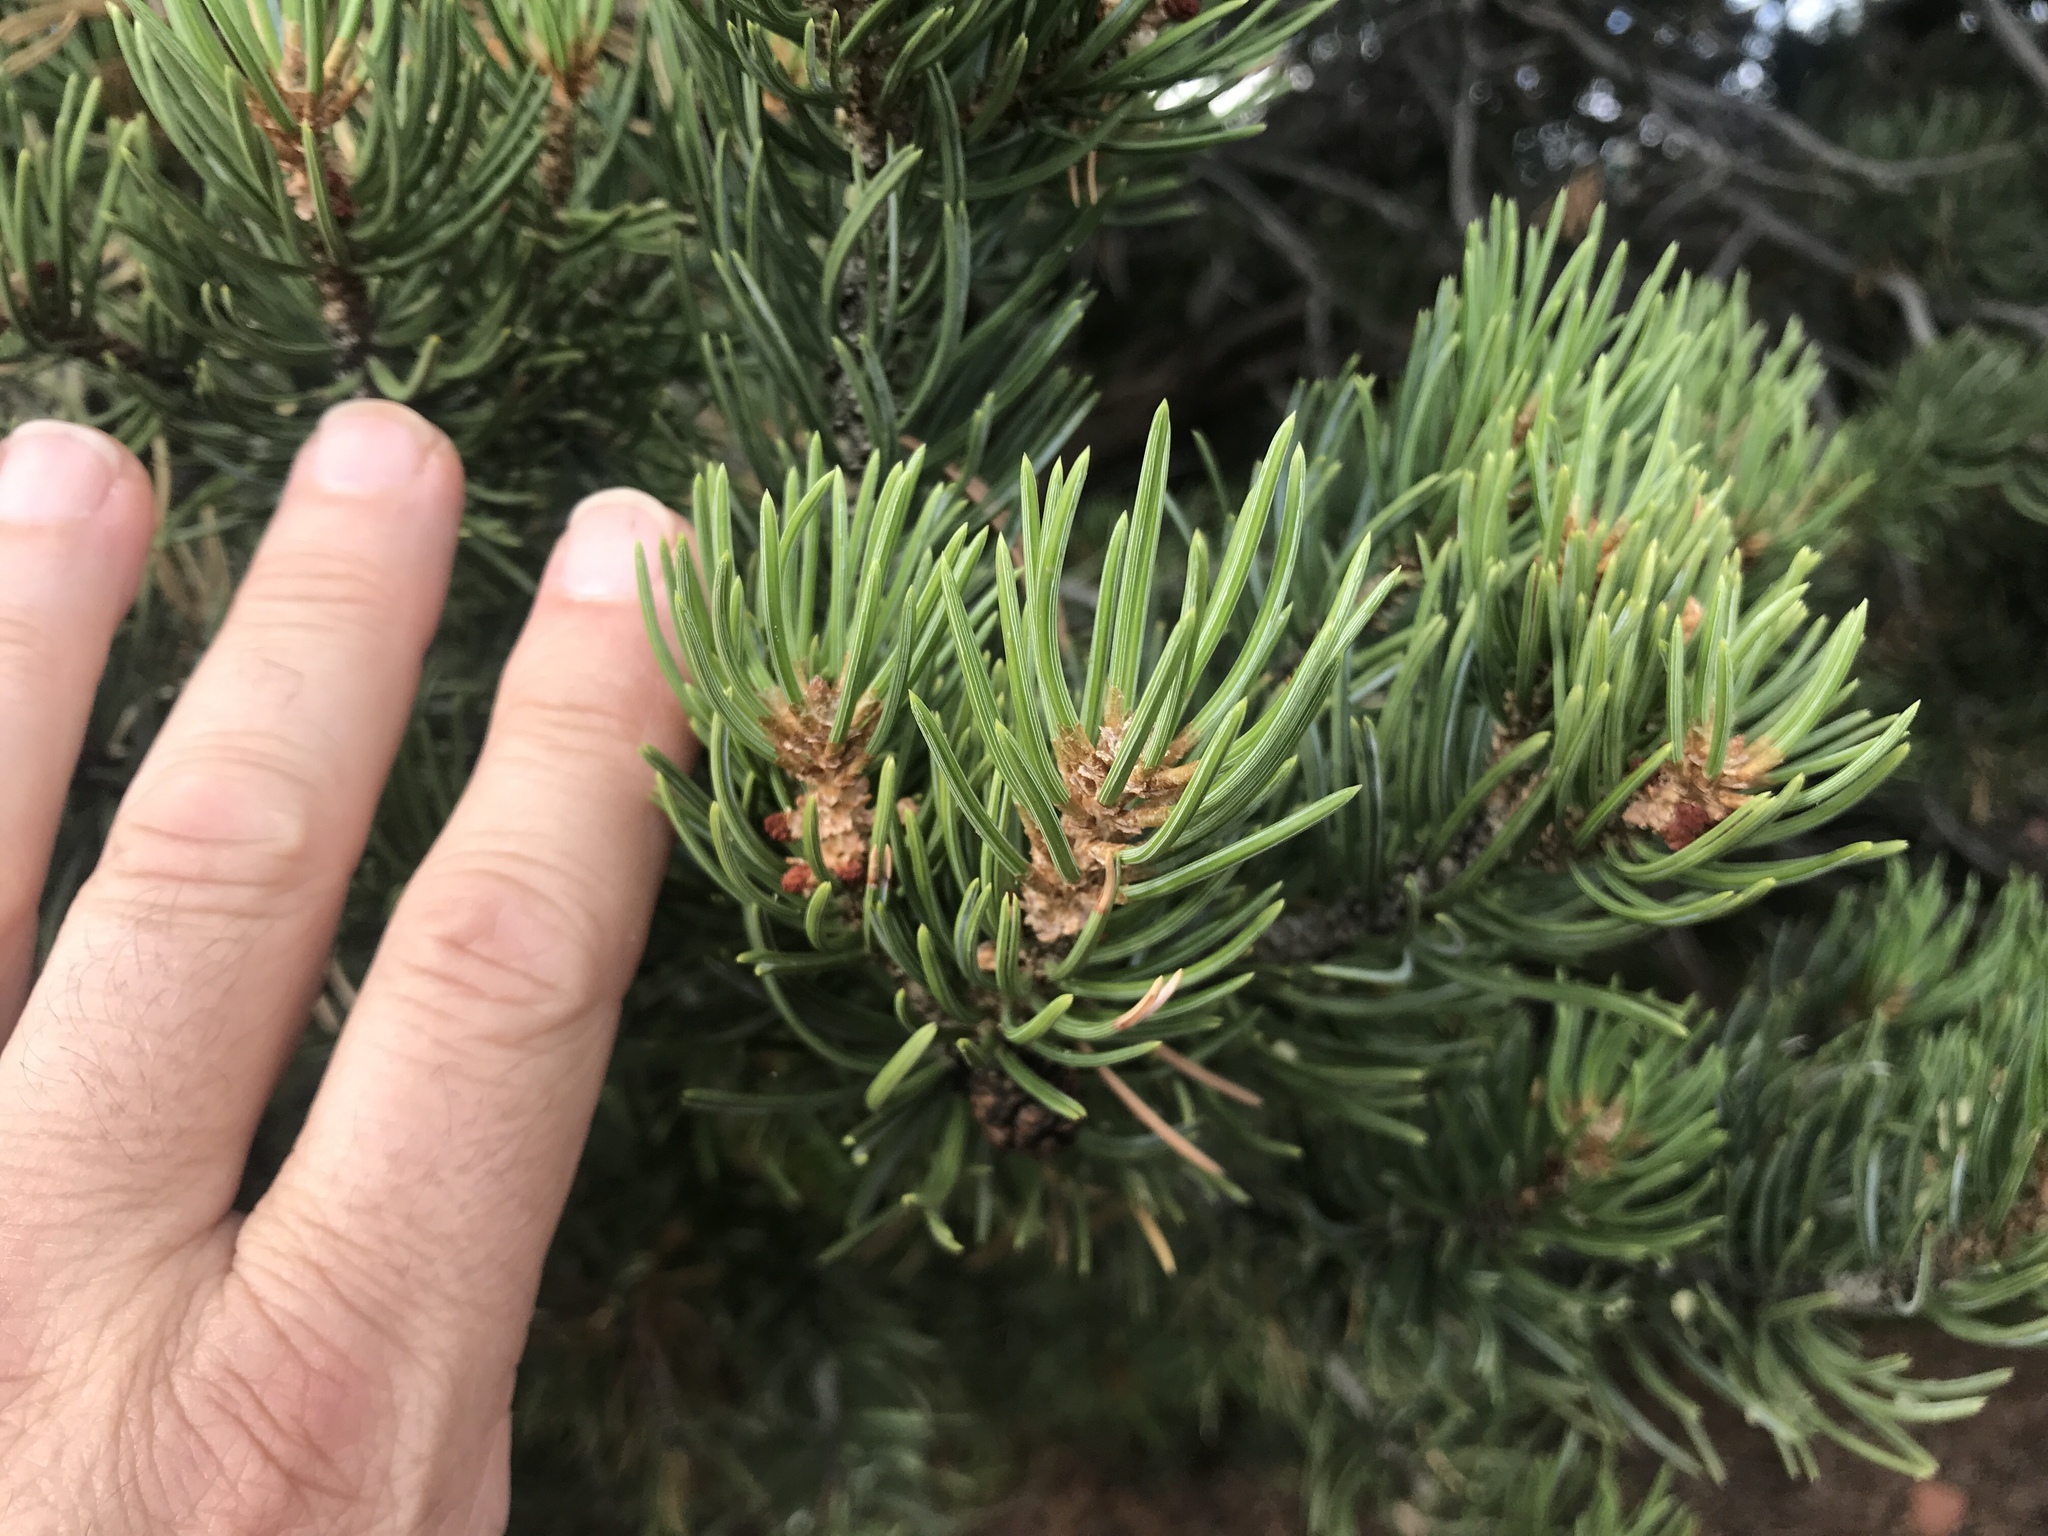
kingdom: Plantae
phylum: Tracheophyta
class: Pinopsida
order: Pinales
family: Pinaceae
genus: Pinus
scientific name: Pinus edulis
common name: Colorado pinyon
